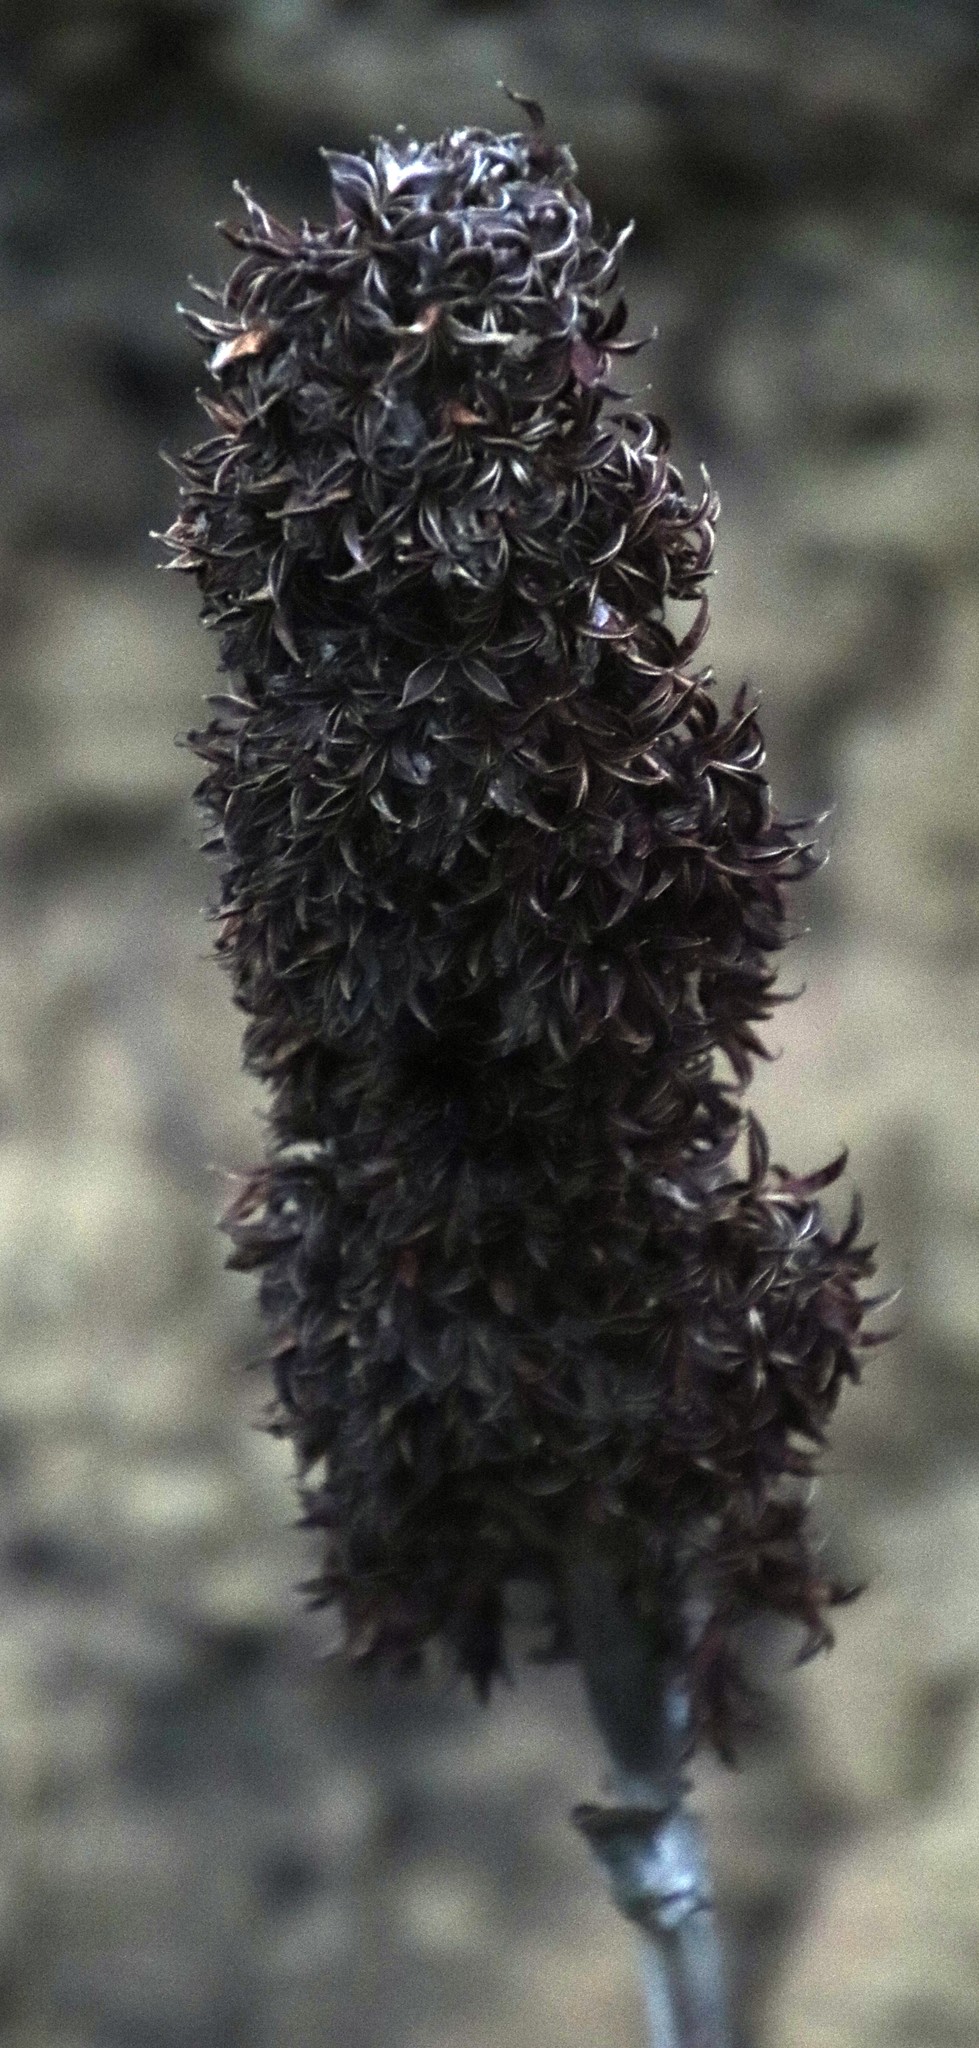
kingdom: Plantae
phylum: Tracheophyta
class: Magnoliopsida
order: Saxifragales
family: Crassulaceae
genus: Kalanchoe
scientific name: Kalanchoe thyrsiflora
